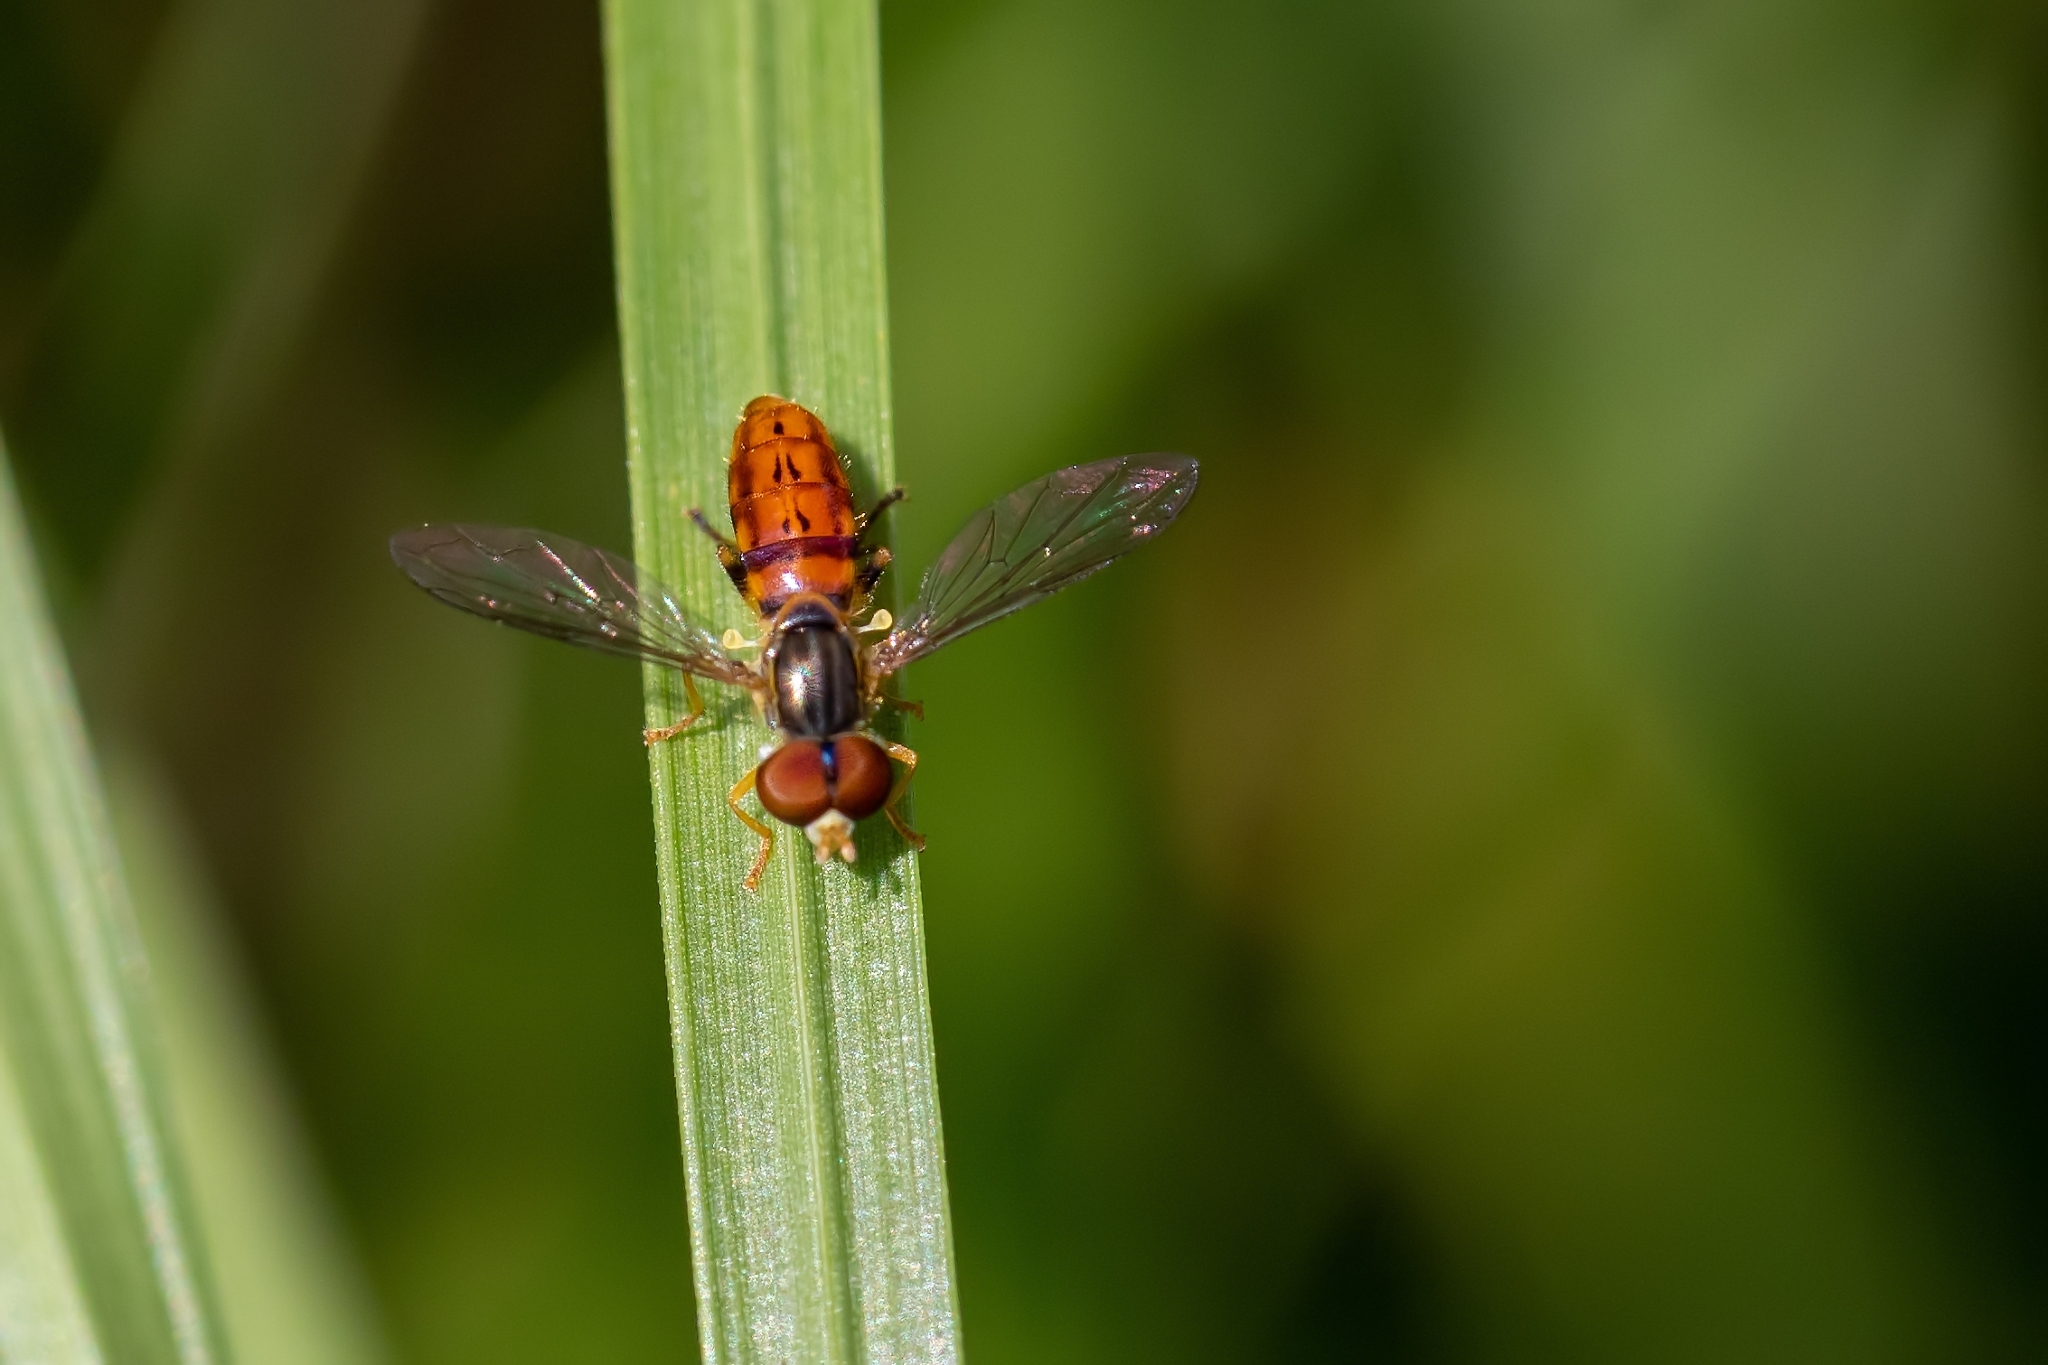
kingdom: Animalia
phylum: Arthropoda
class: Insecta
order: Diptera
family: Syrphidae
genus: Toxomerus
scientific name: Toxomerus boscii
